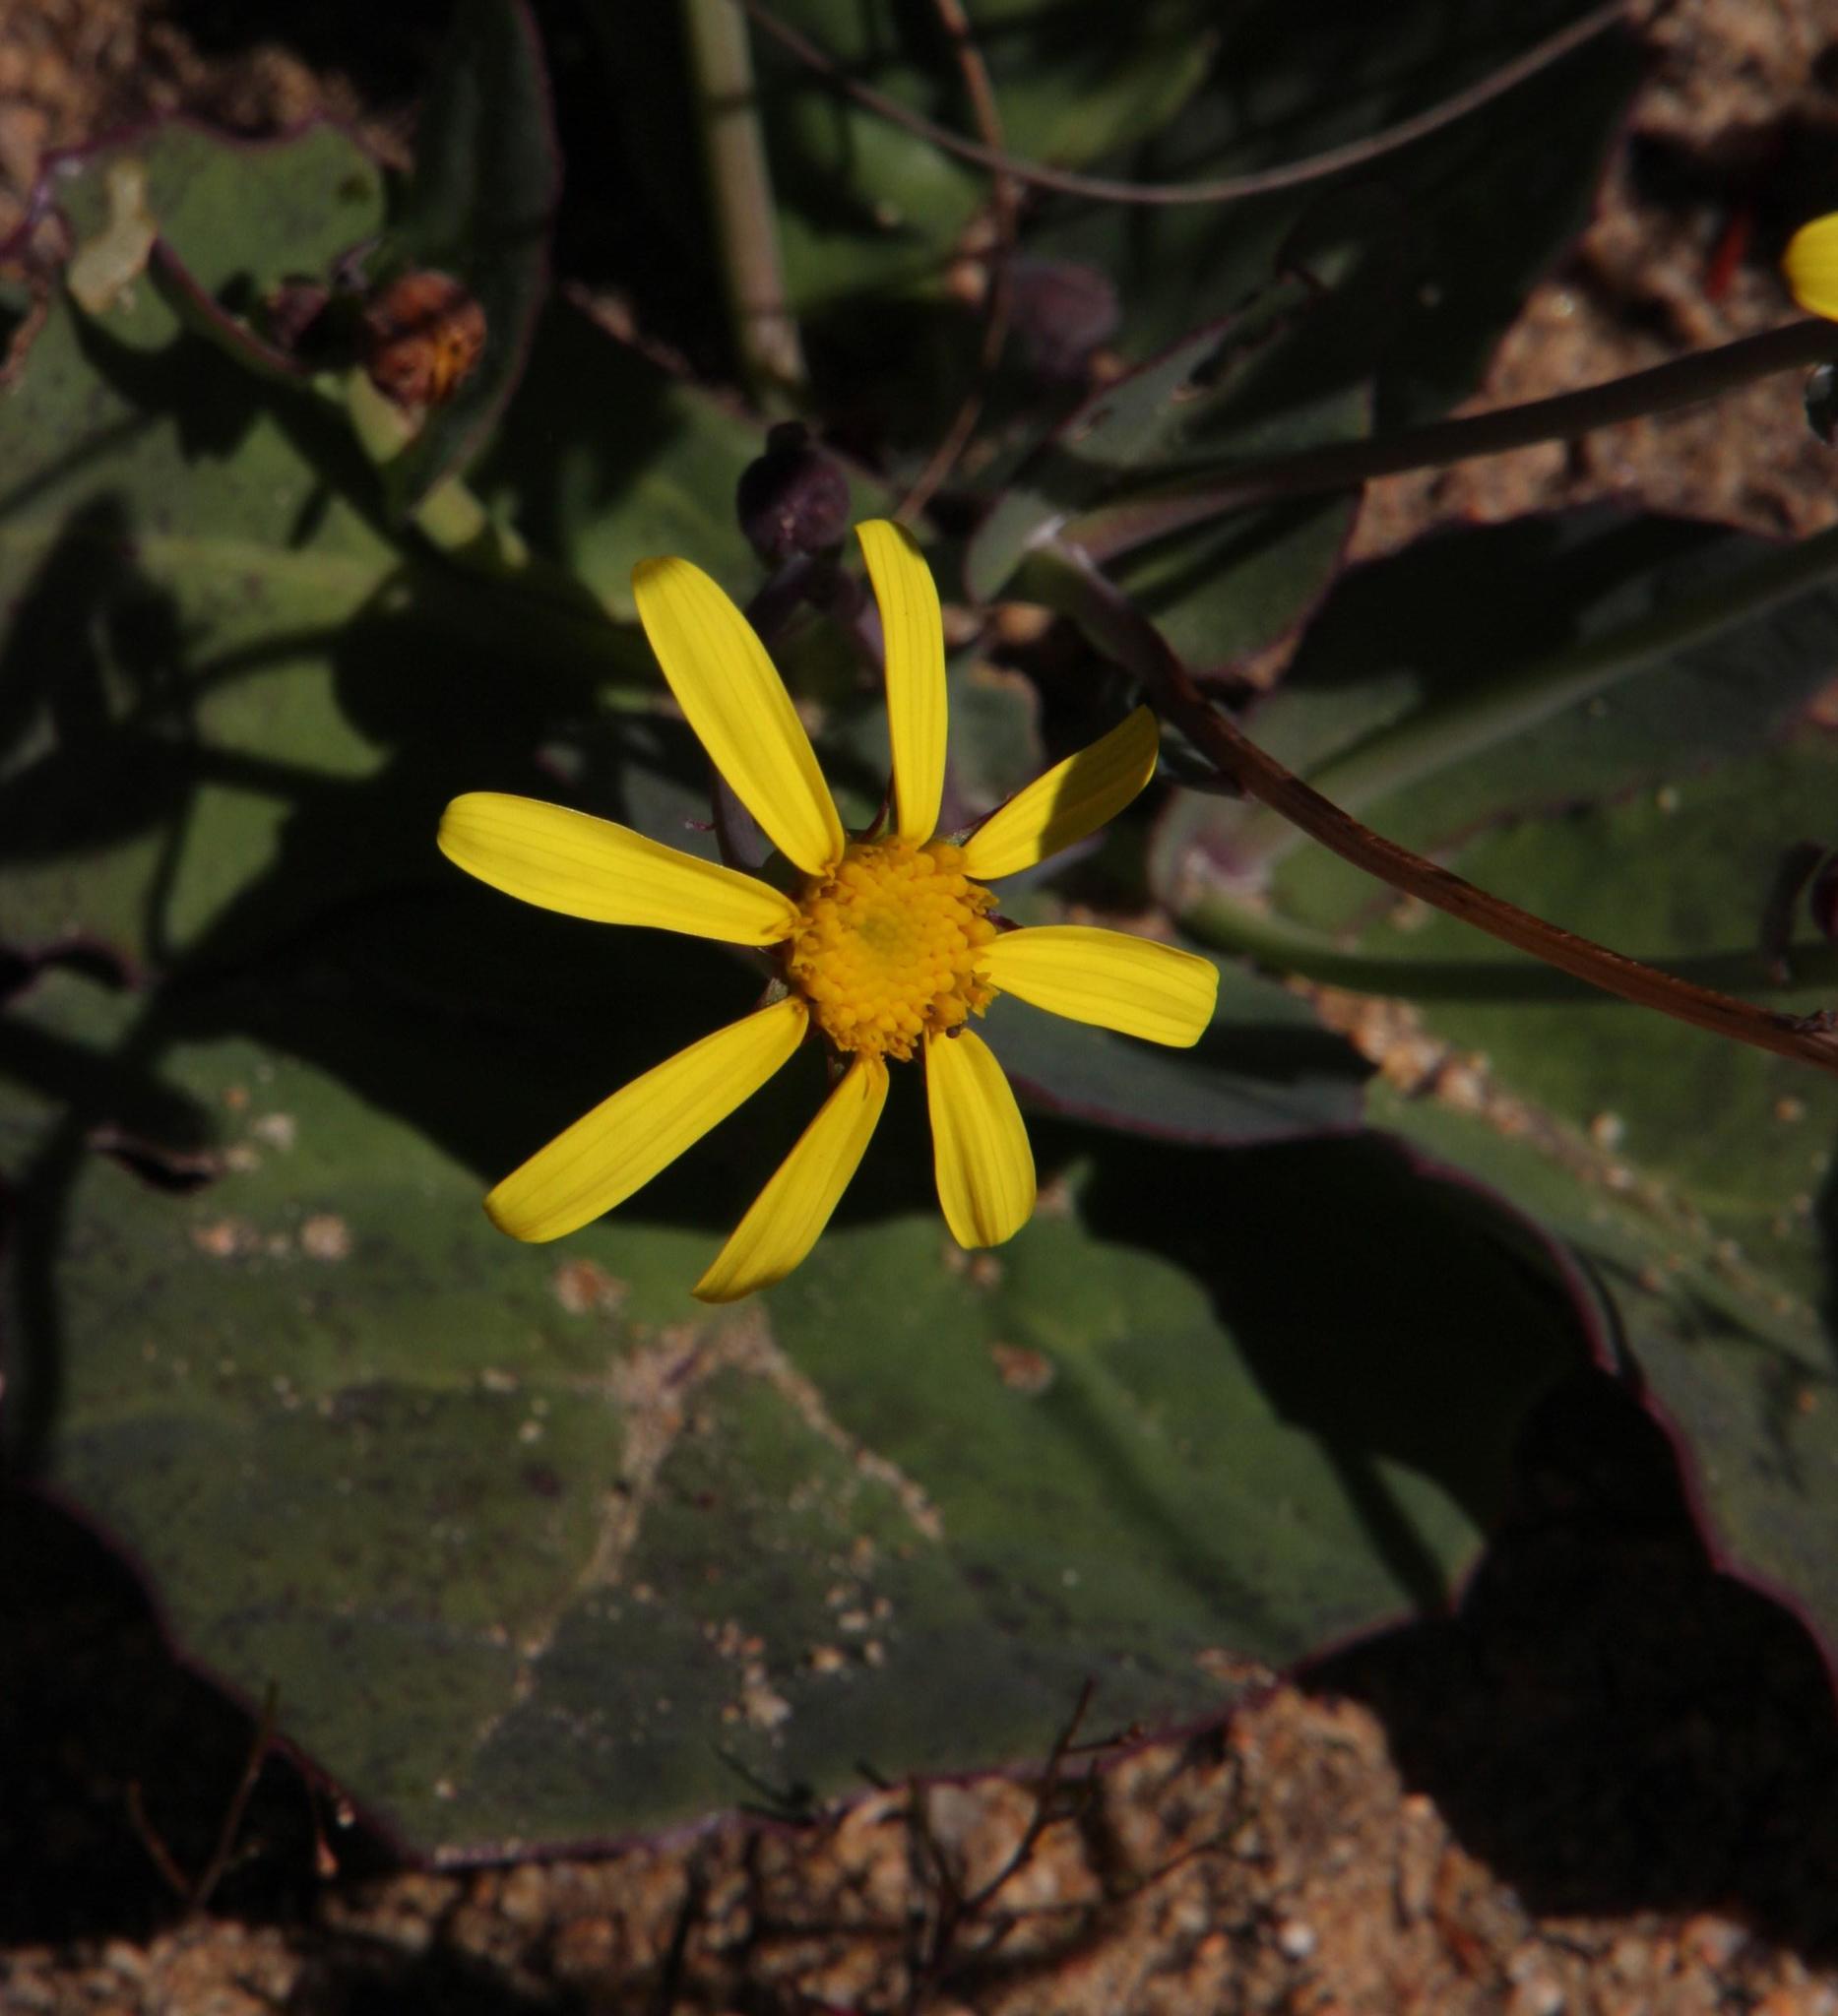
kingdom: Plantae
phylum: Tracheophyta
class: Magnoliopsida
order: Asterales
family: Asteraceae
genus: Othonna
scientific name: Othonna petiolaris
